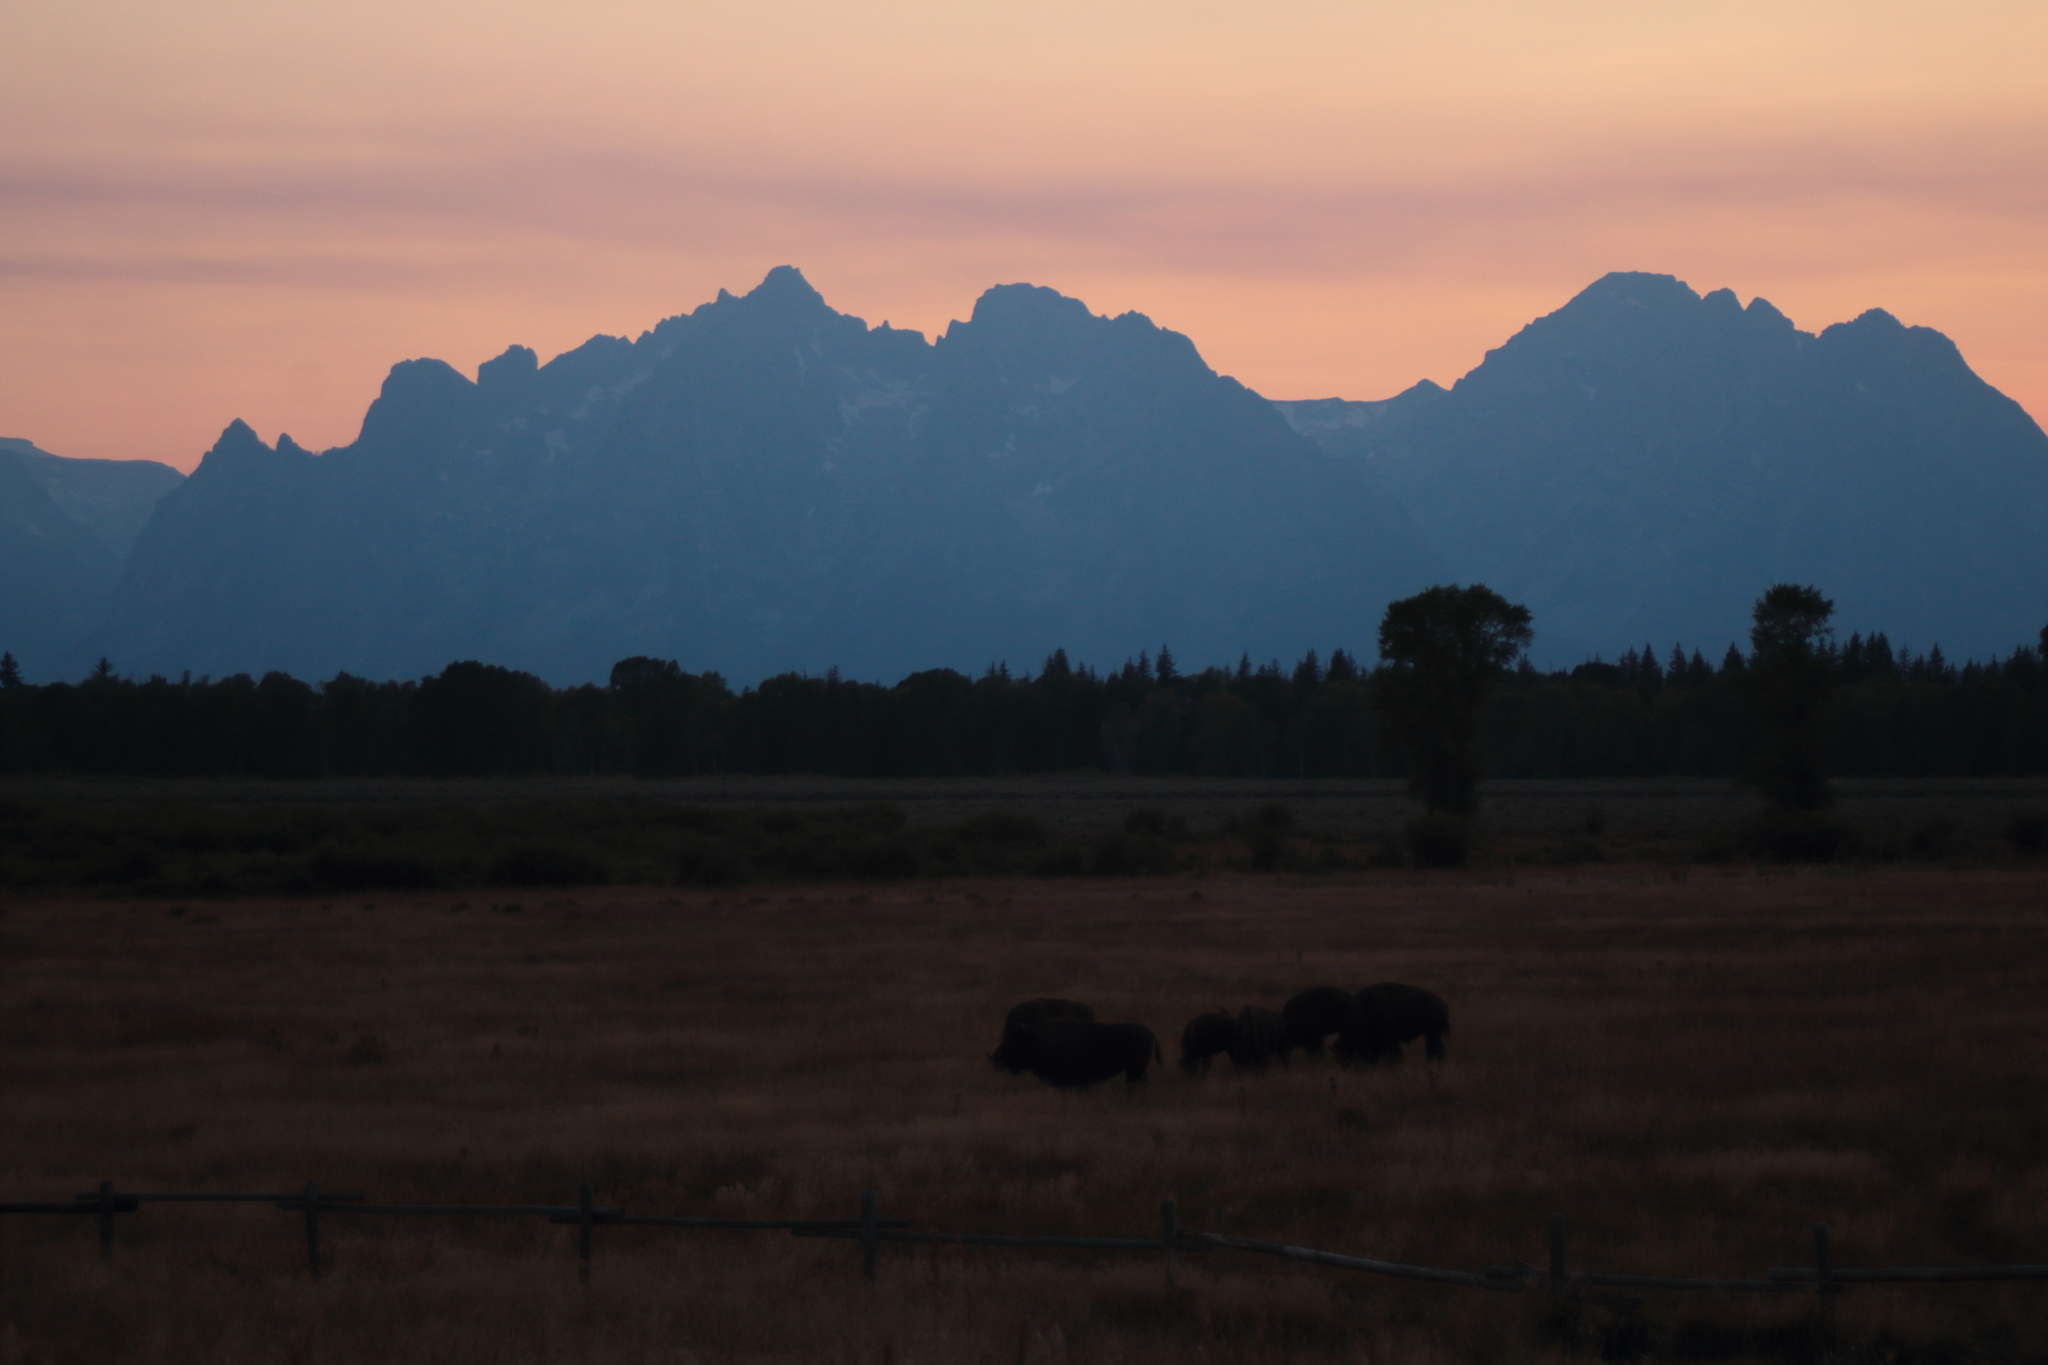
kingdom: Animalia
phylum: Chordata
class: Mammalia
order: Artiodactyla
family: Bovidae
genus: Bison
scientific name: Bison bison
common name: American bison
